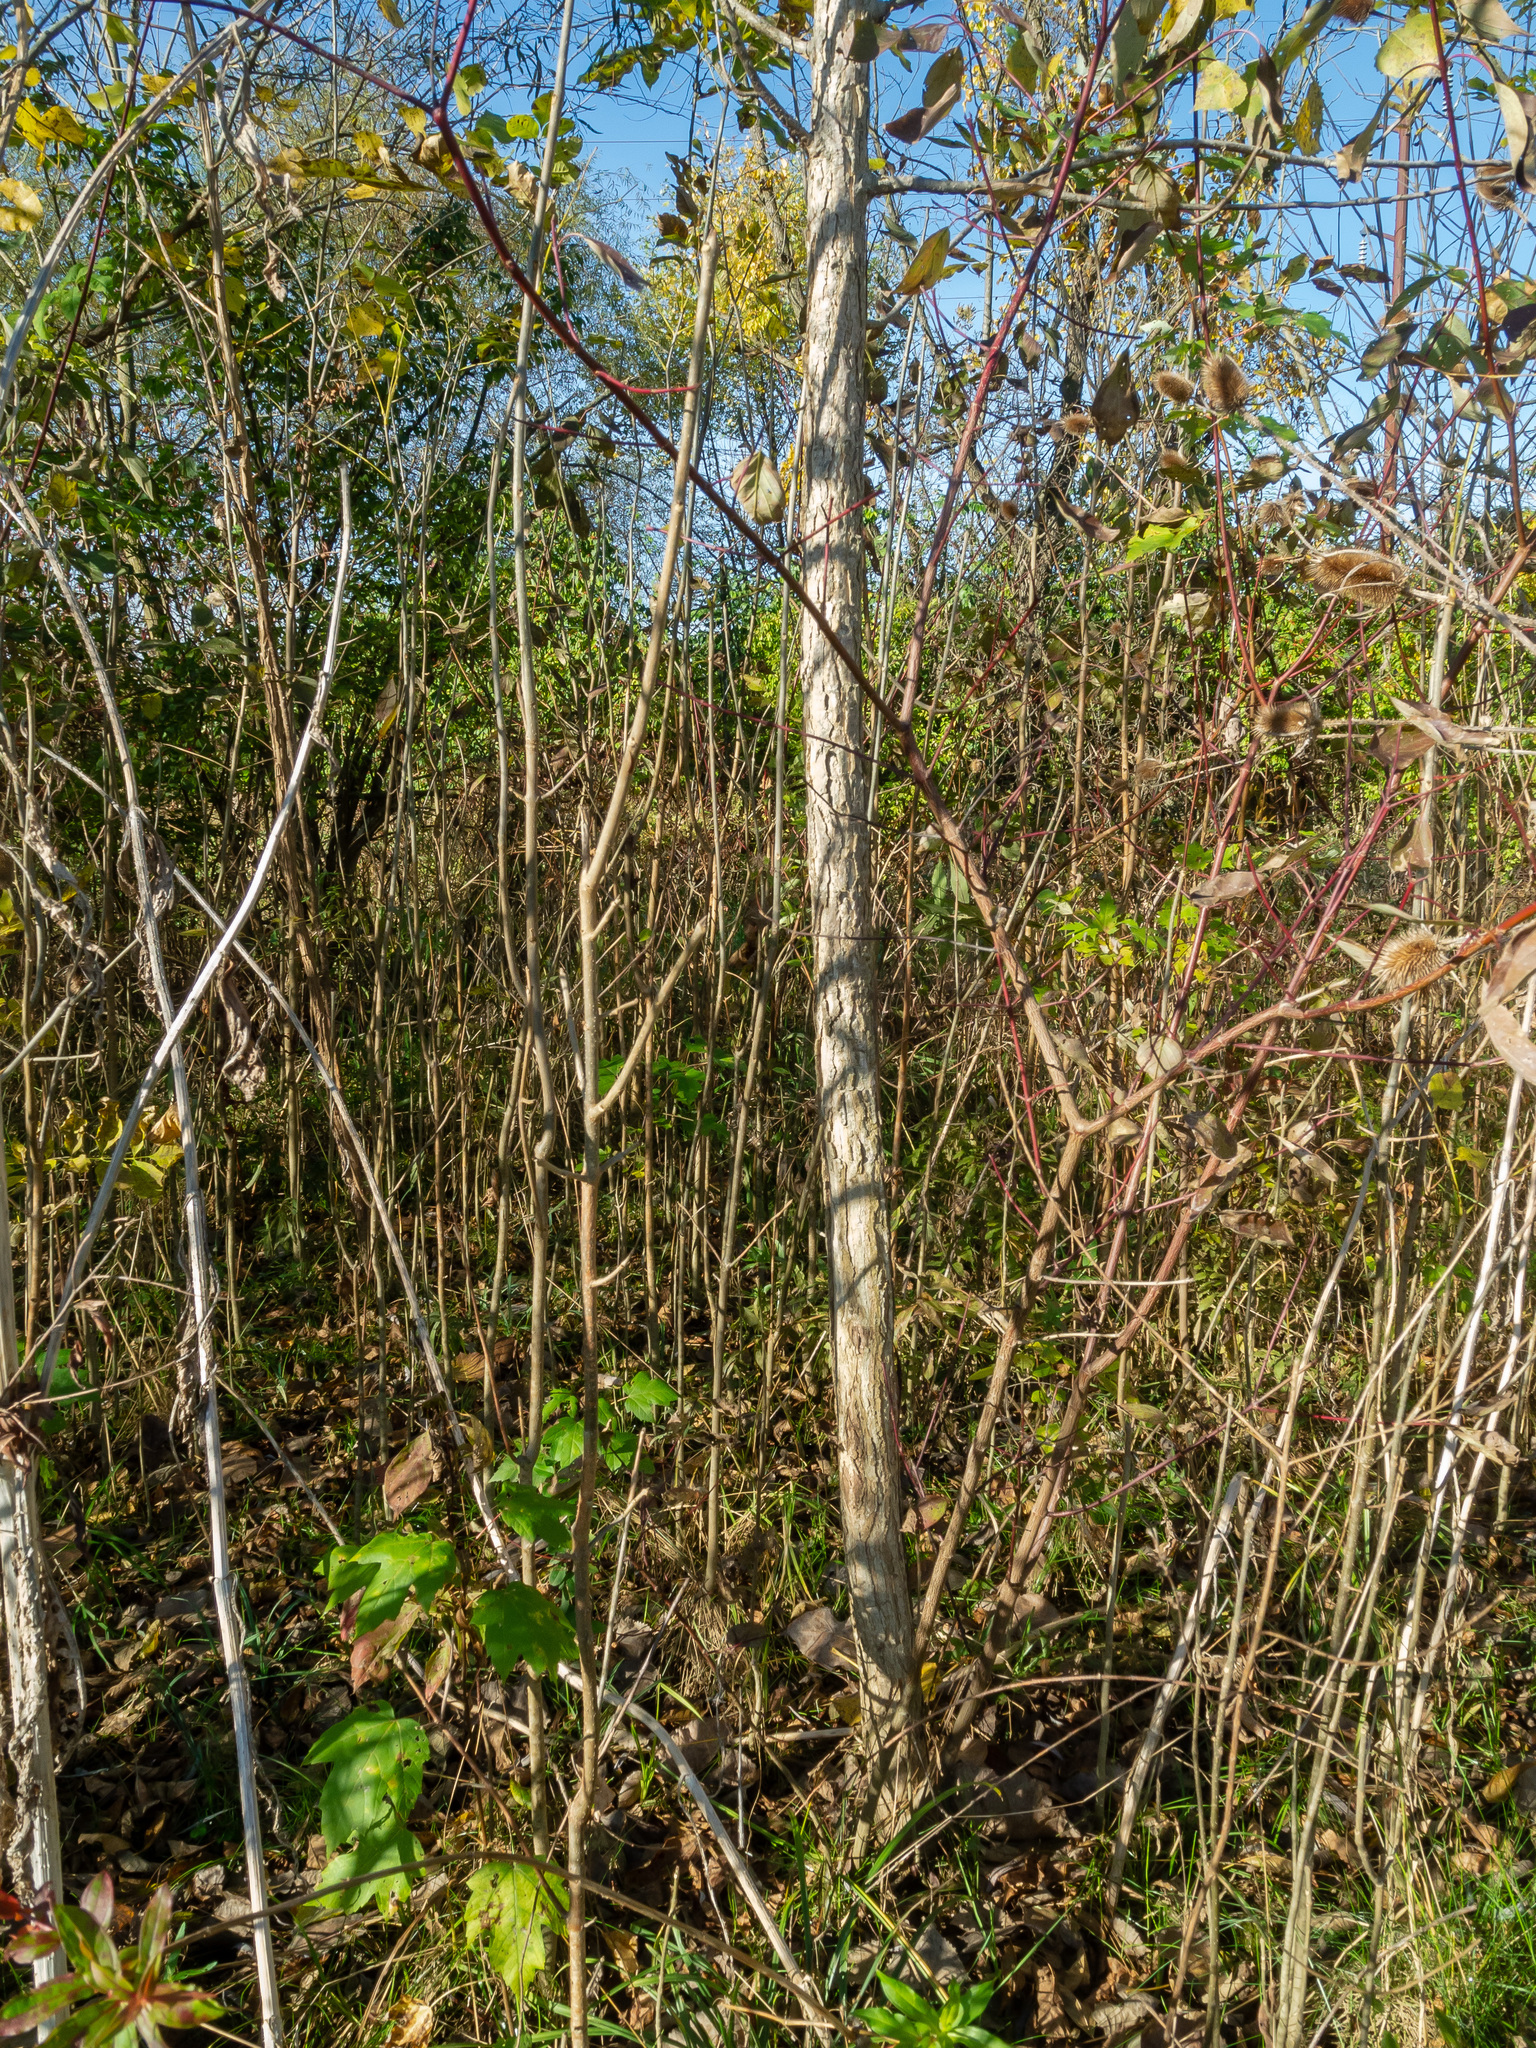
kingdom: Plantae
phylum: Tracheophyta
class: Magnoliopsida
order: Malpighiales
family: Salicaceae
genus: Populus
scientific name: Populus deltoides
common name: Eastern cottonwood
